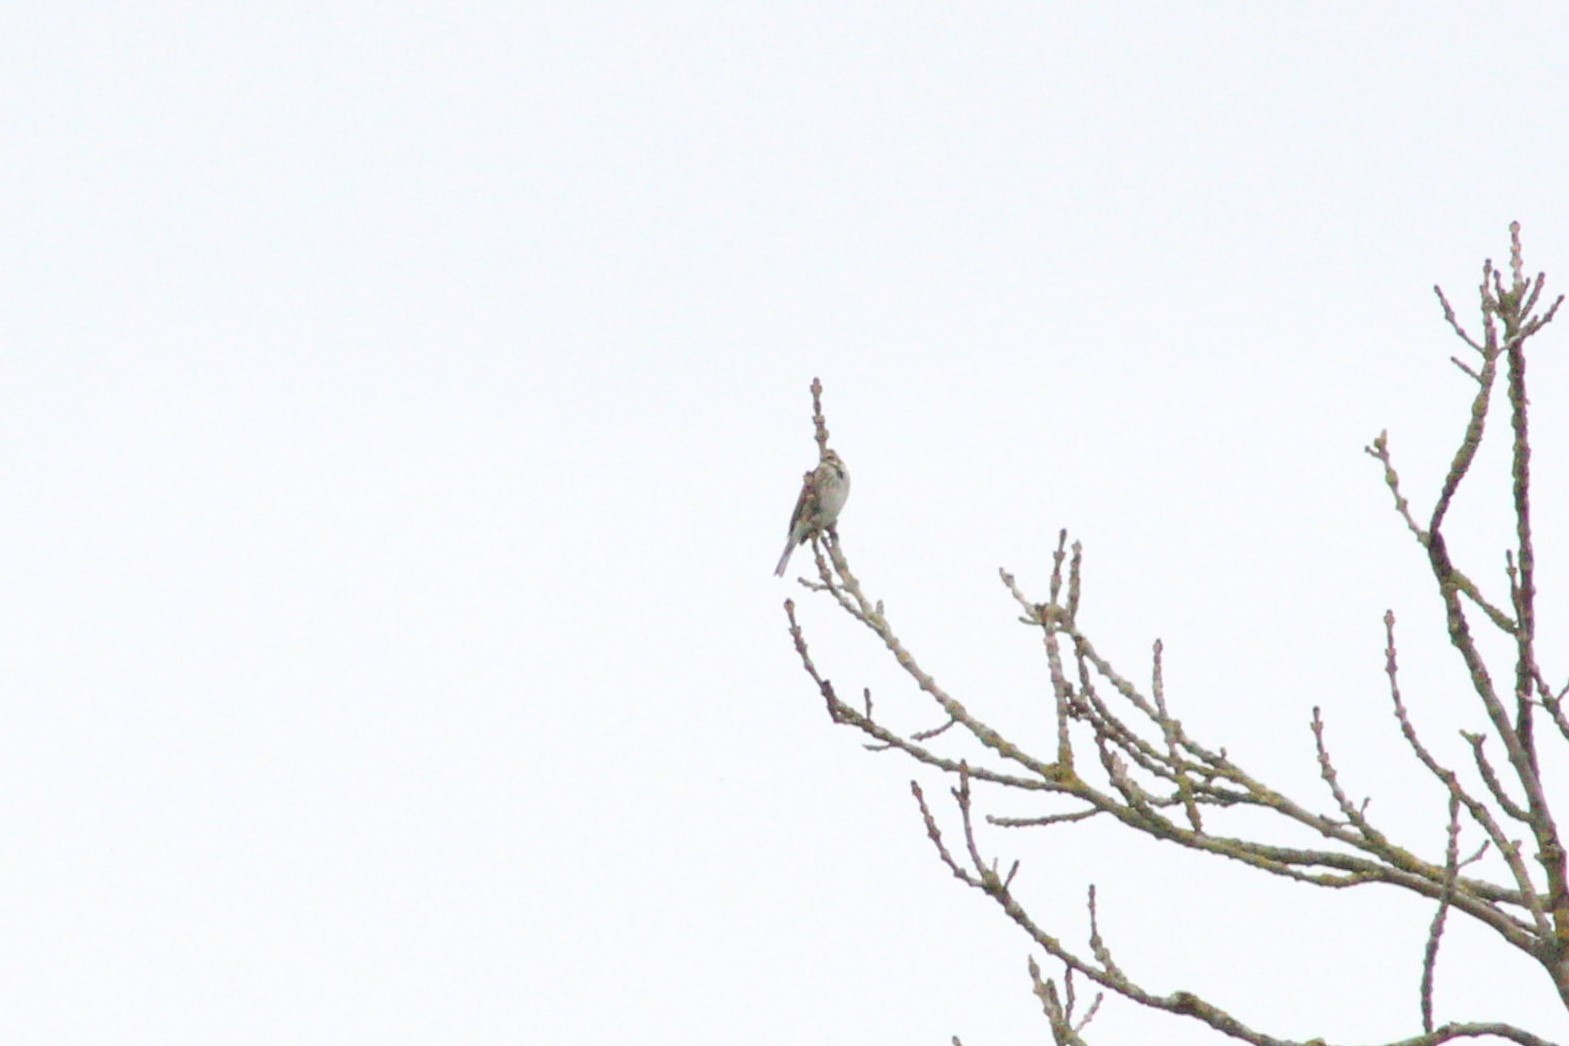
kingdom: Animalia
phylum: Chordata
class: Aves
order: Passeriformes
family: Emberizidae
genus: Emberiza
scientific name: Emberiza schoeniclus
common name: Reed bunting
